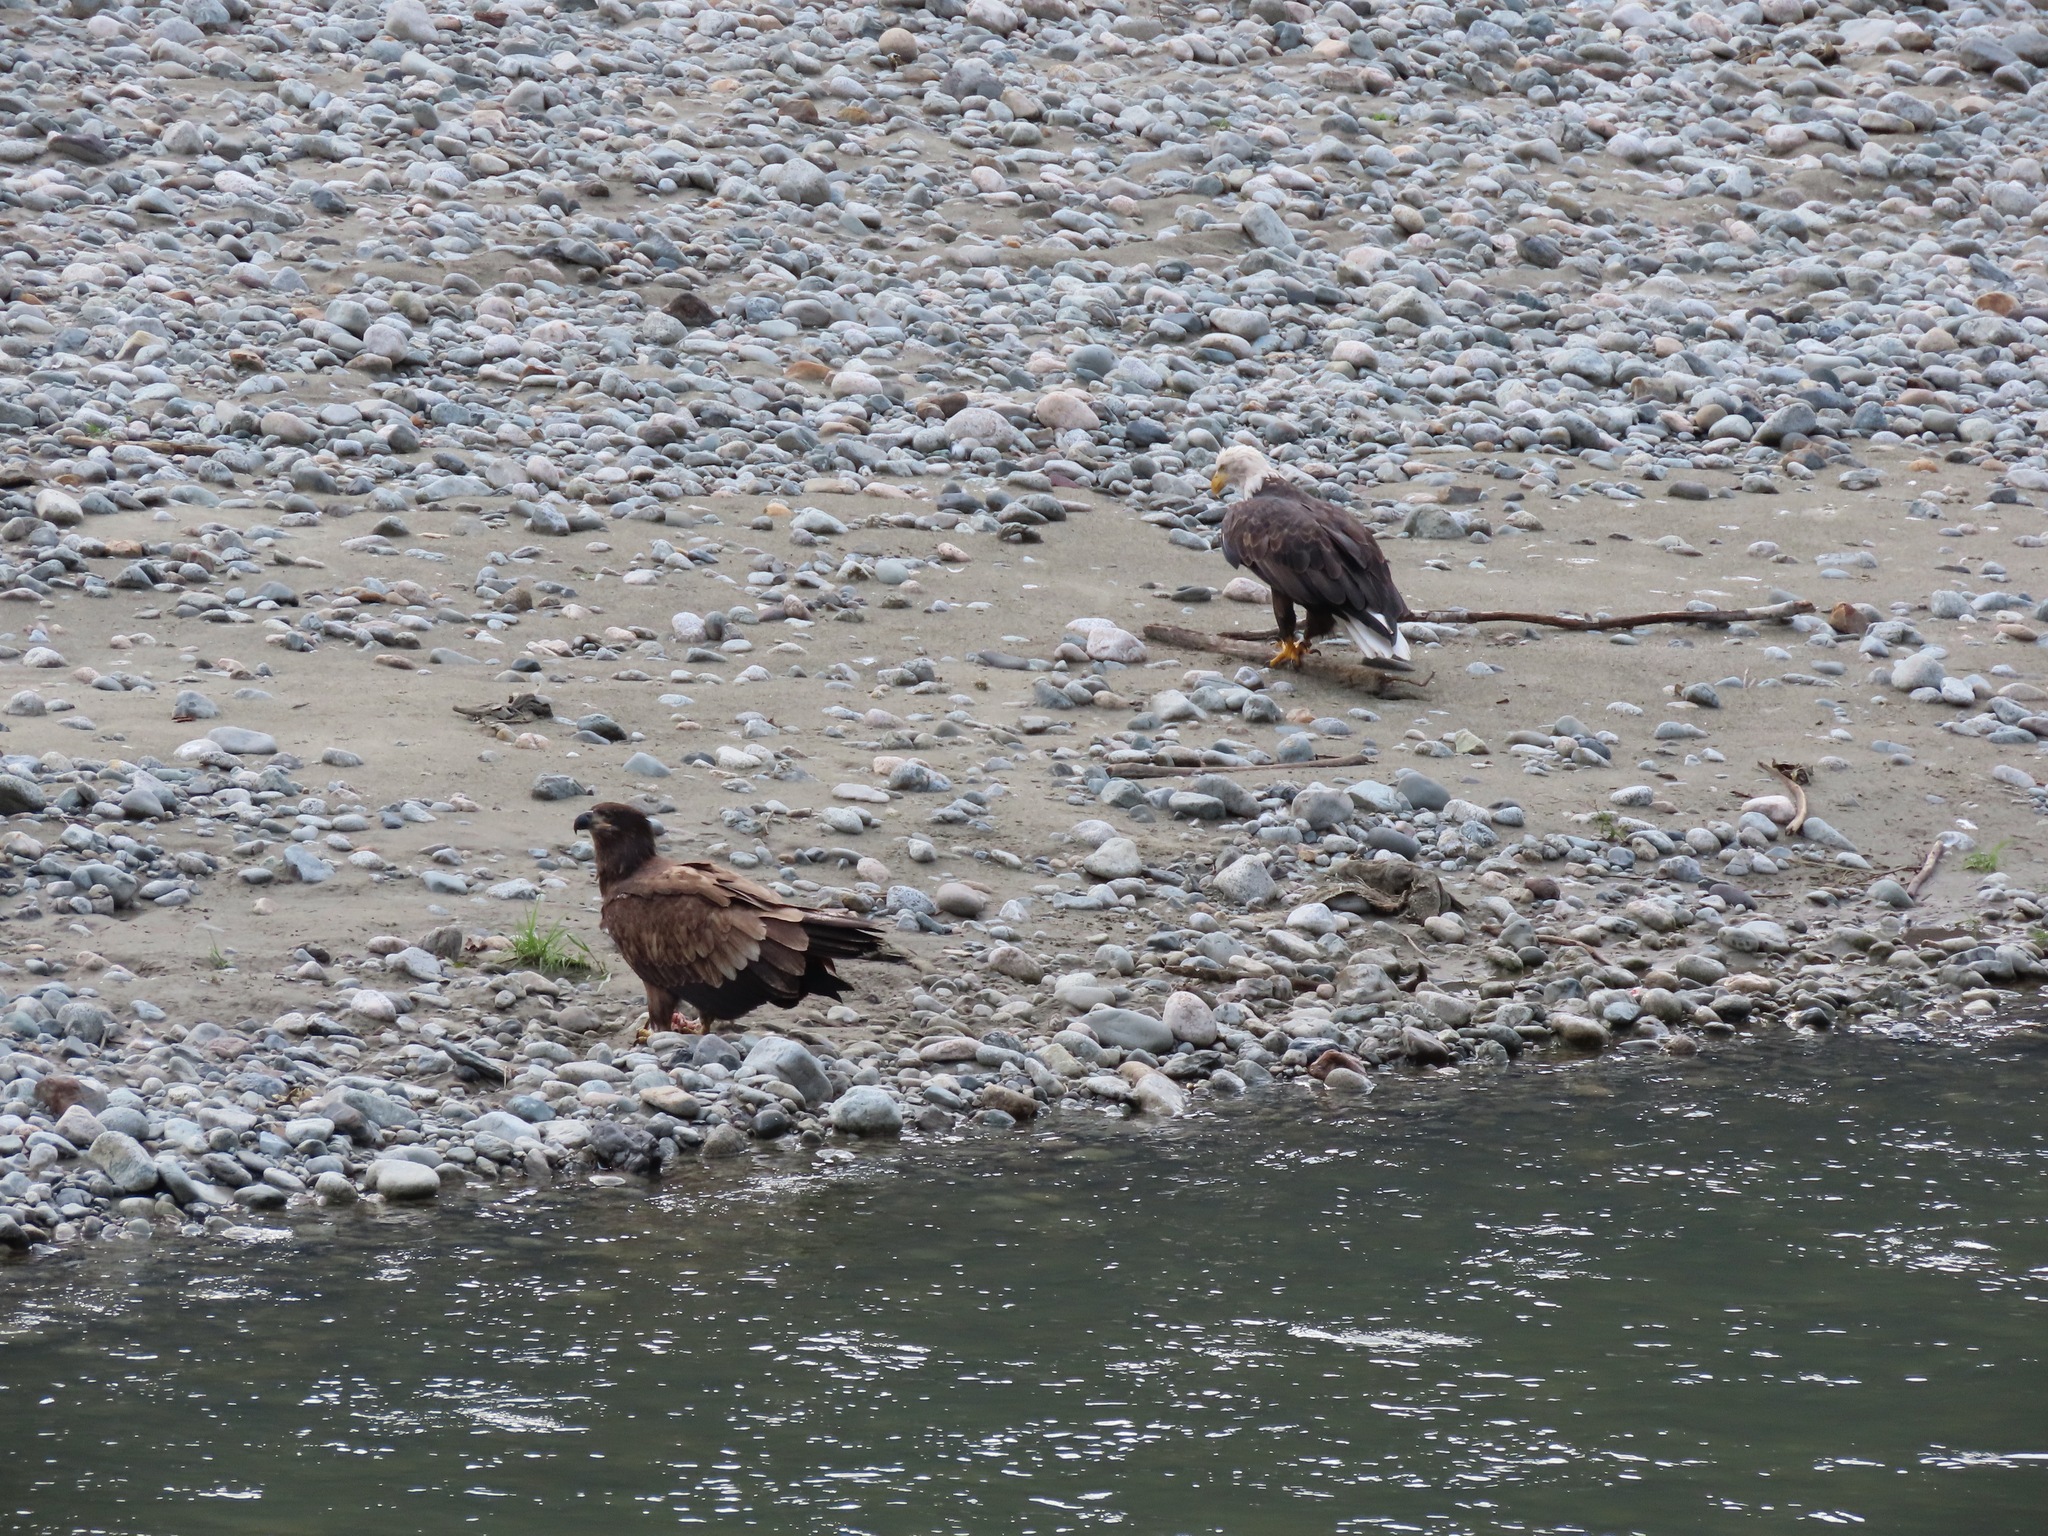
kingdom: Animalia
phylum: Chordata
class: Aves
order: Accipitriformes
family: Accipitridae
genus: Haliaeetus
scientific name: Haliaeetus leucocephalus
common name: Bald eagle
